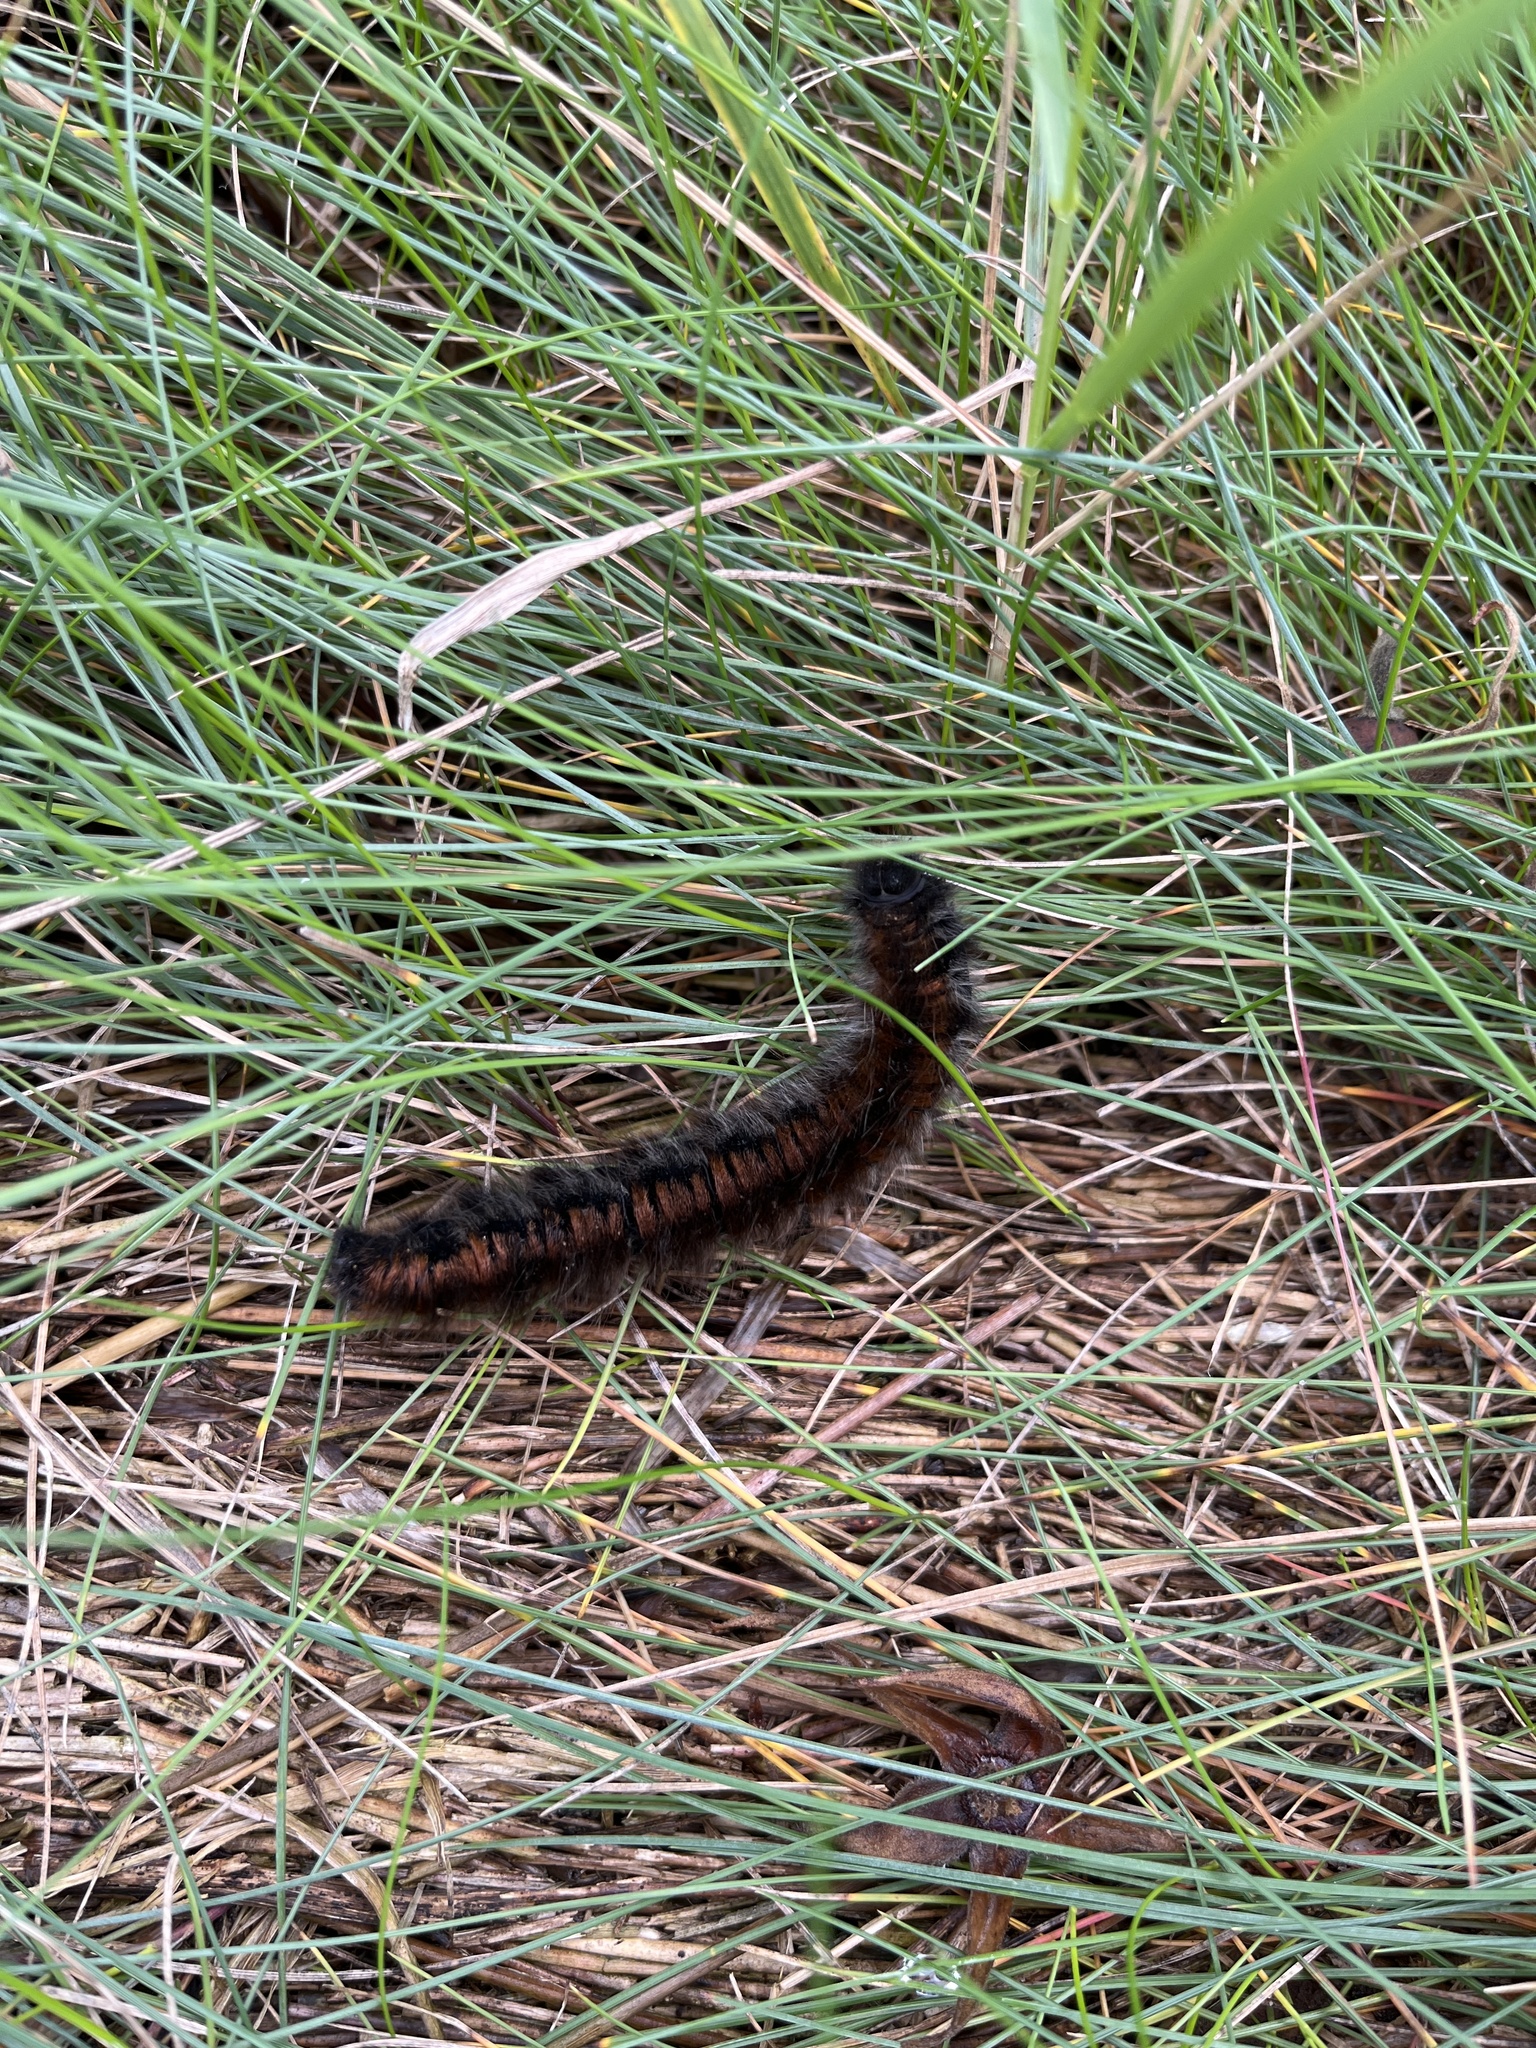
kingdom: Animalia
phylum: Arthropoda
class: Insecta
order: Lepidoptera
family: Lasiocampidae
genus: Macrothylacia
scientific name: Macrothylacia rubi
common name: Fox moth
